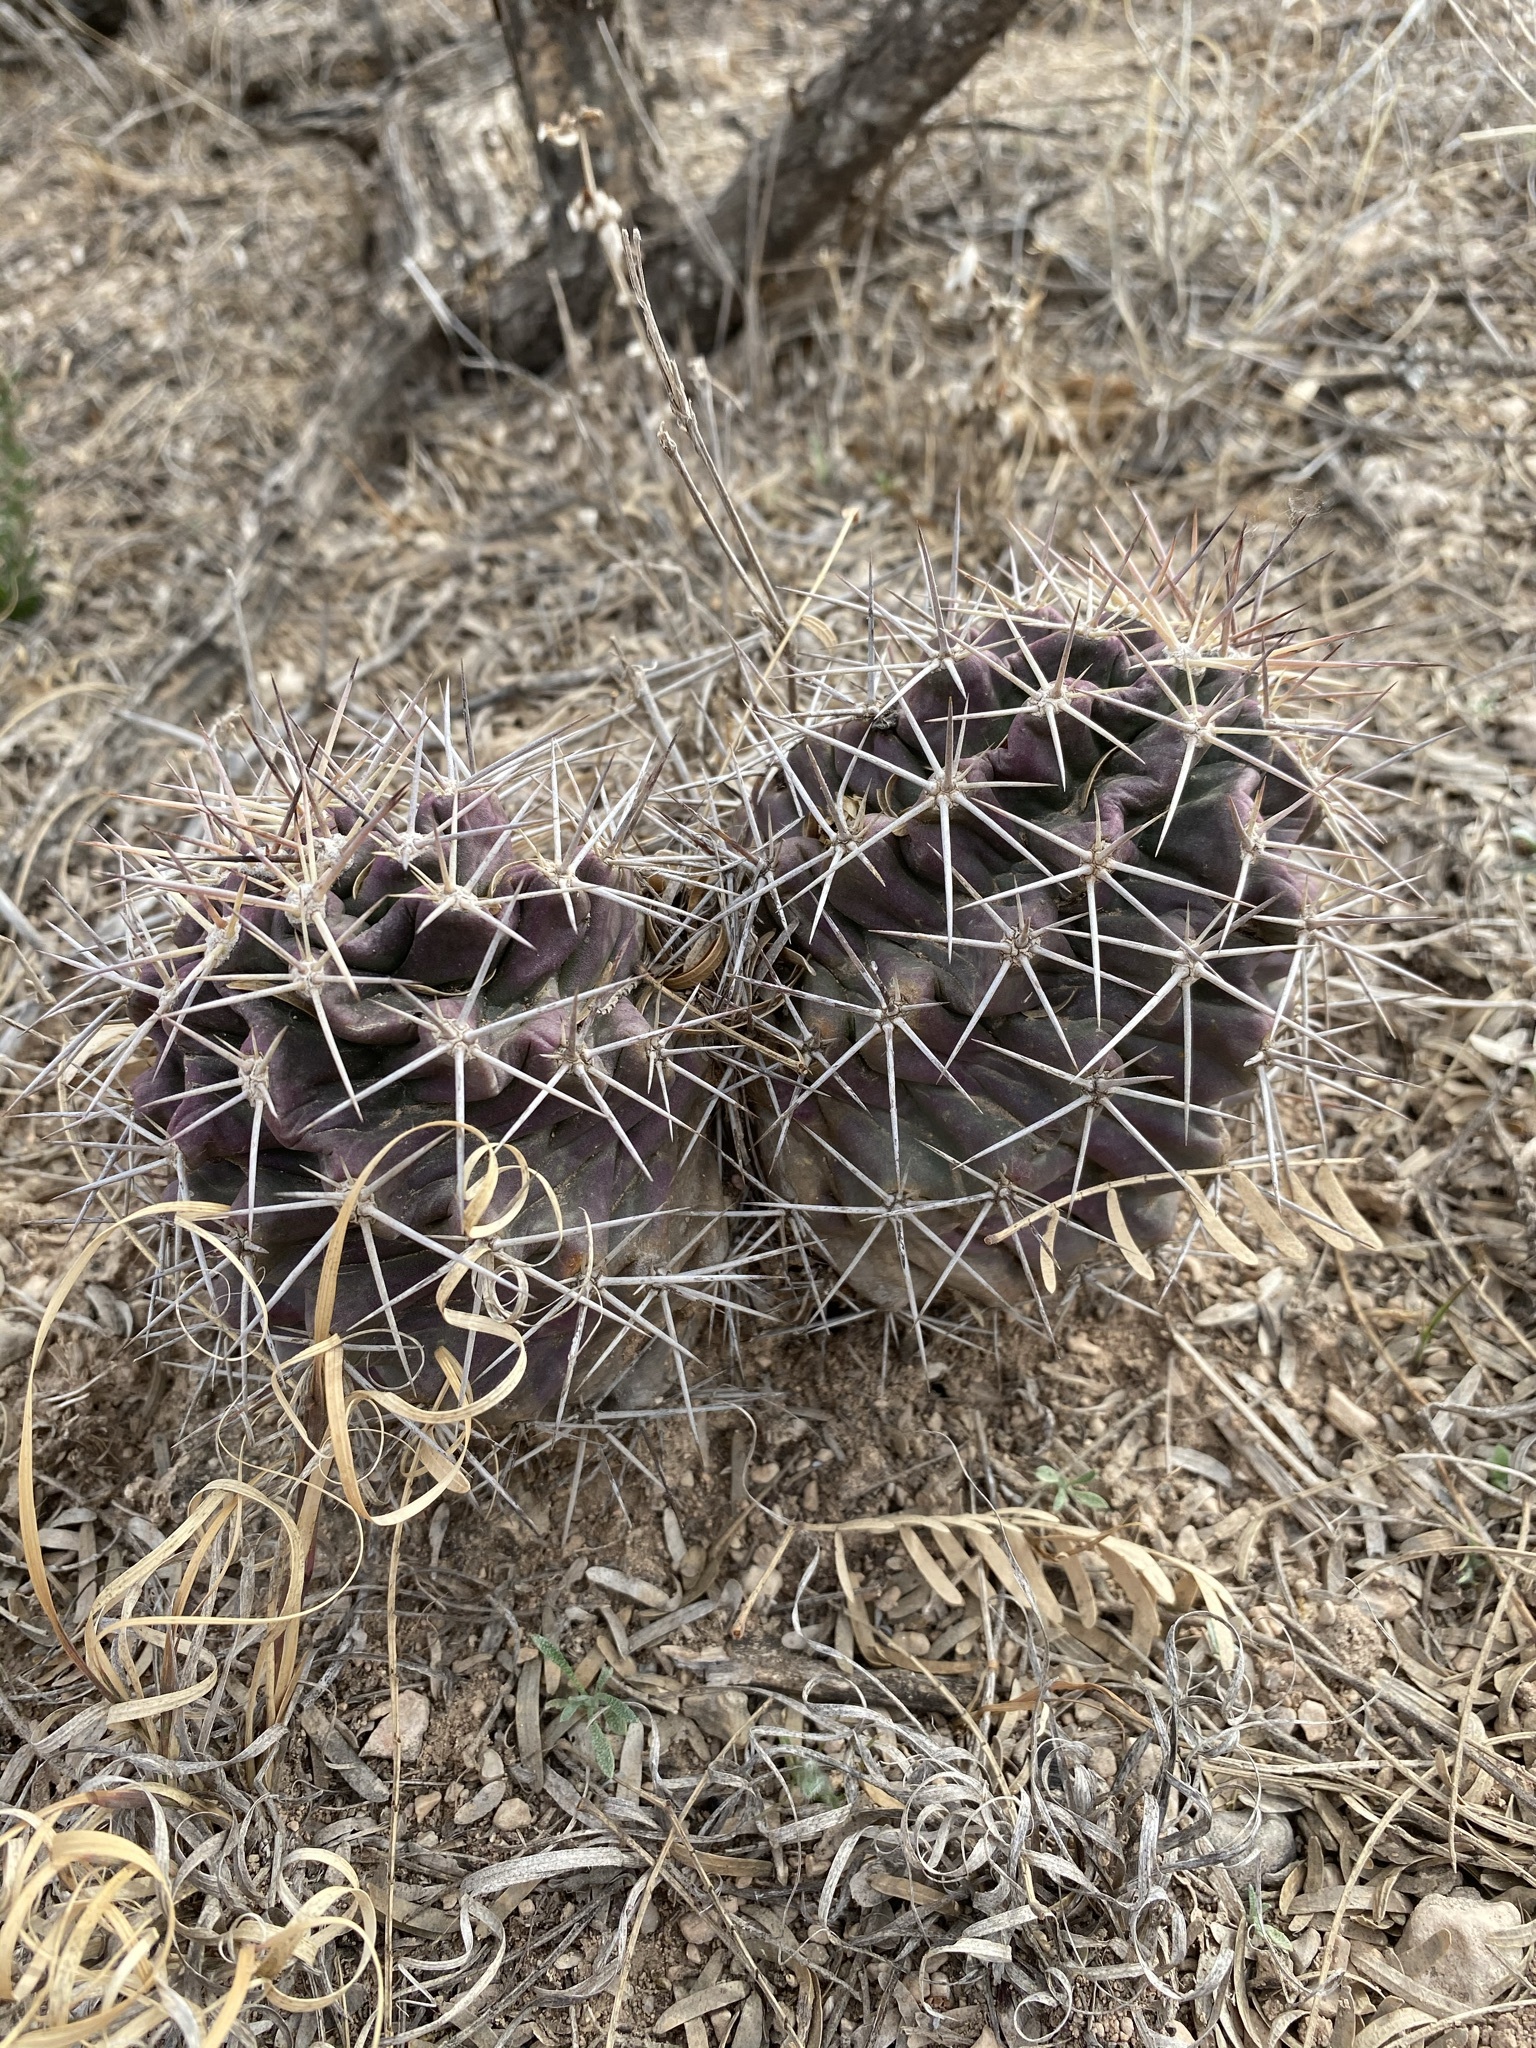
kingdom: Plantae
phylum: Tracheophyta
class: Magnoliopsida
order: Caryophyllales
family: Cactaceae
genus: Echinocereus
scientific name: Echinocereus coccineus
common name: Scarlet hedgehog cactus
